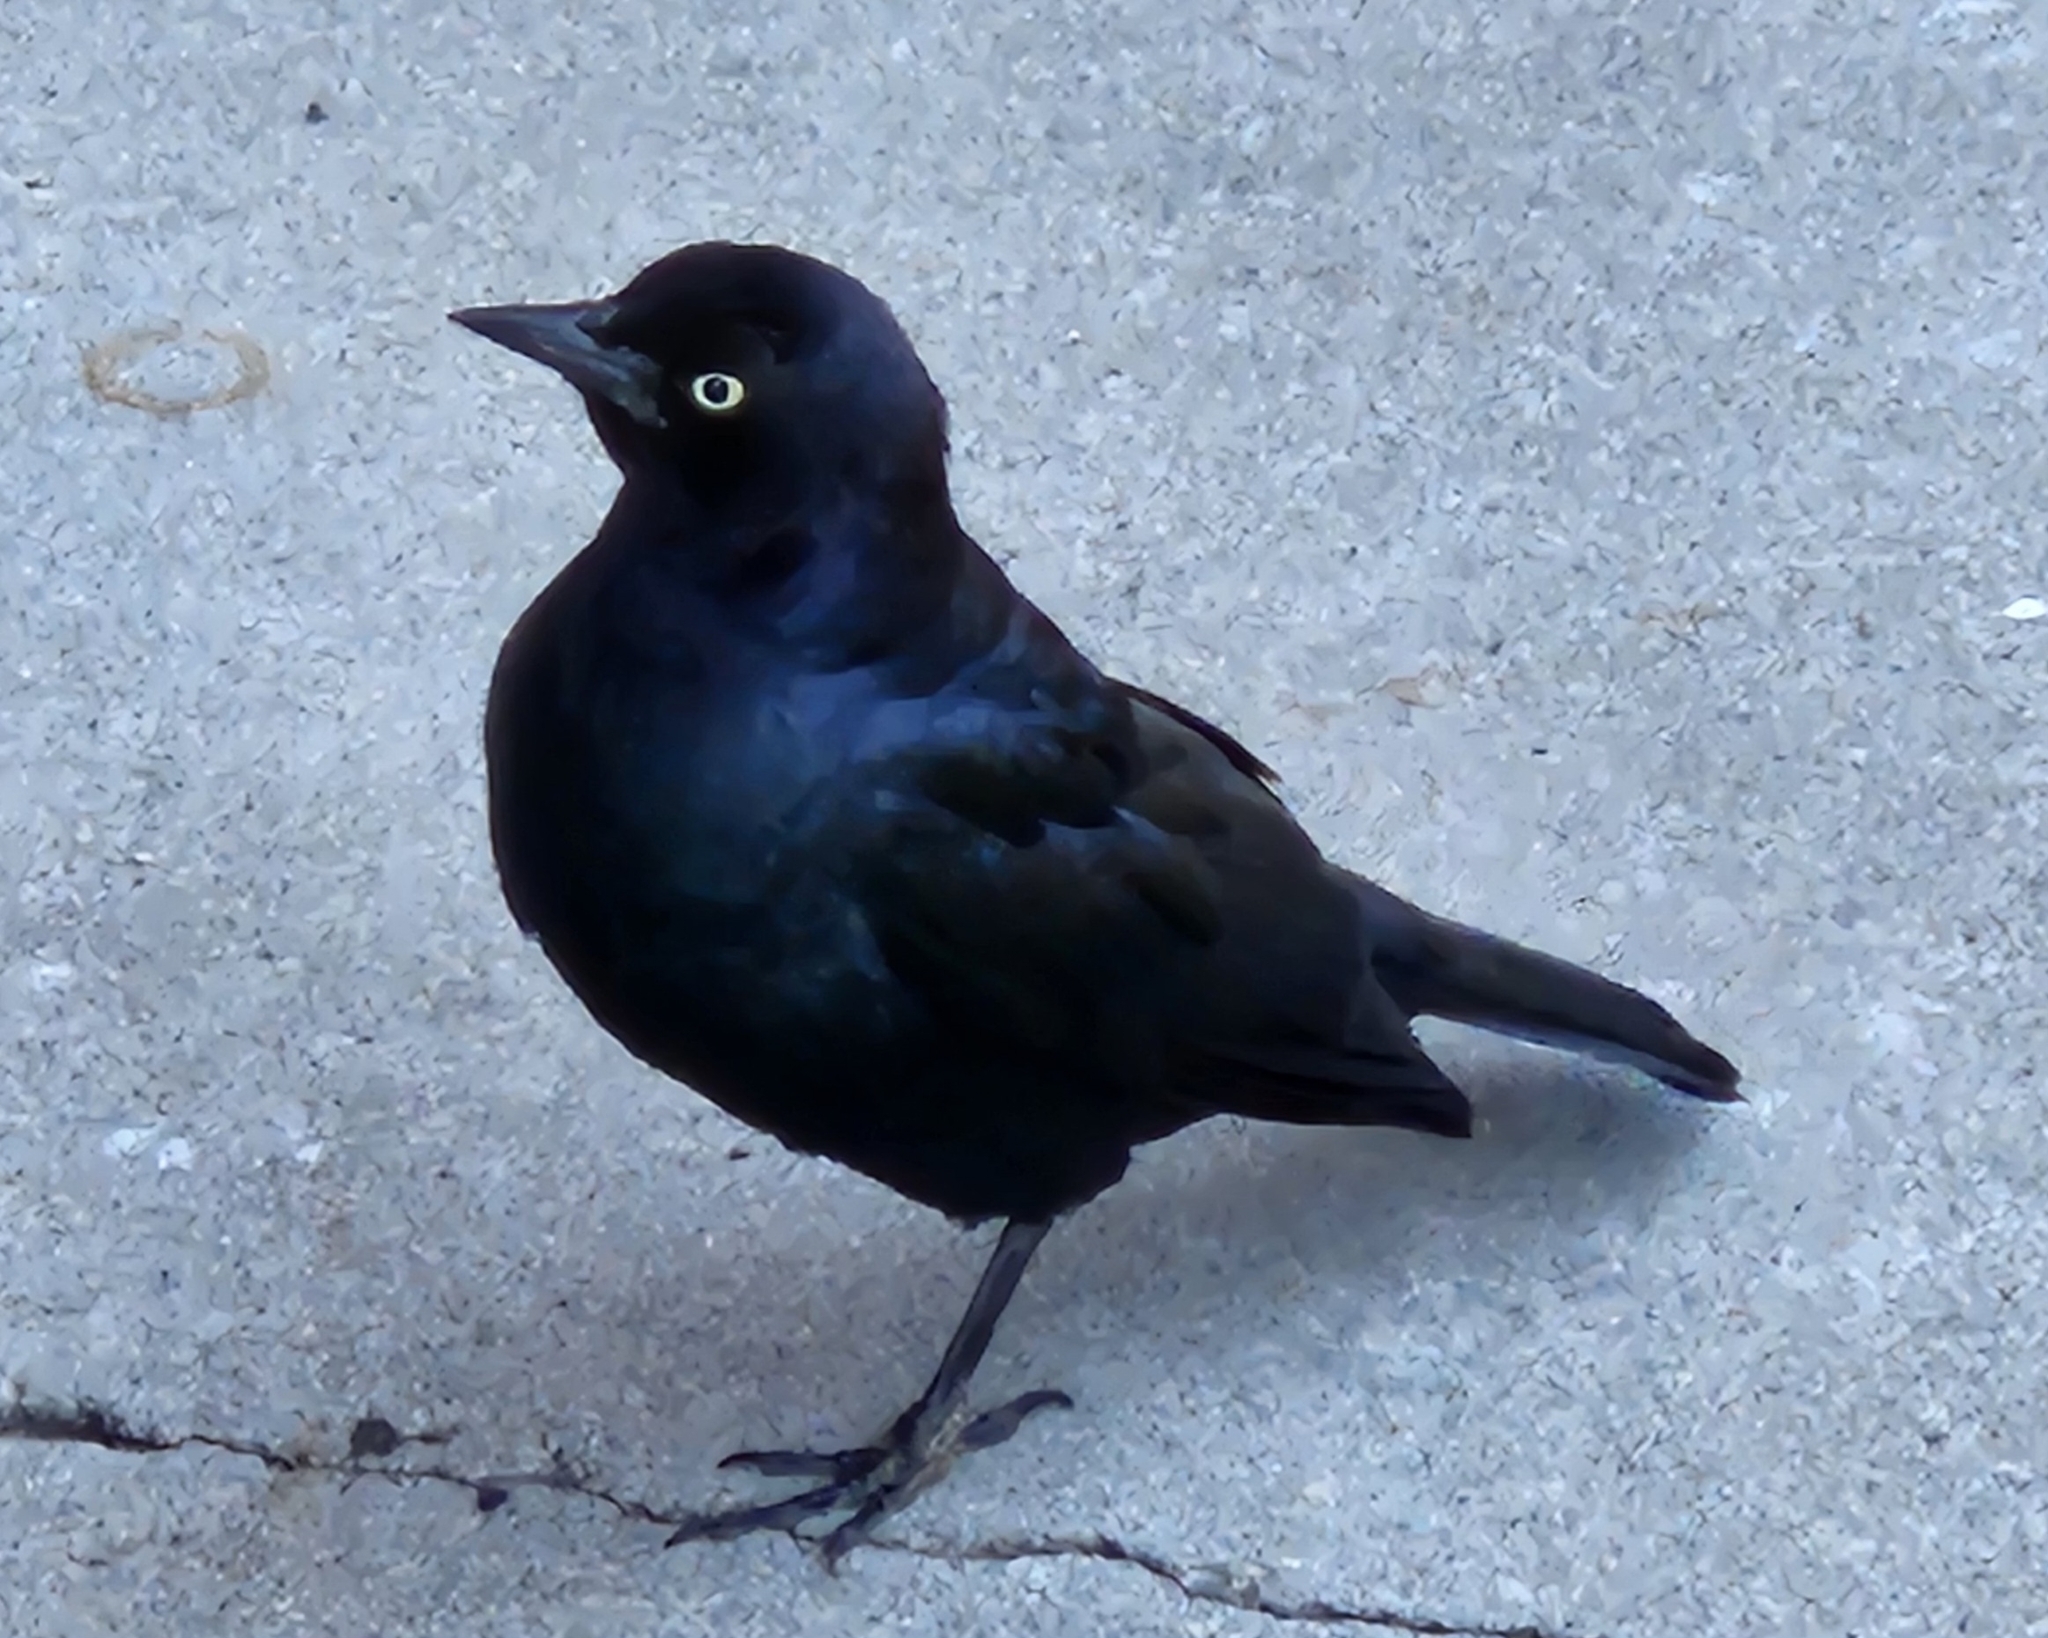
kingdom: Animalia
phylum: Chordata
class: Aves
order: Passeriformes
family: Icteridae
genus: Euphagus
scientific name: Euphagus cyanocephalus
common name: Brewer's blackbird
